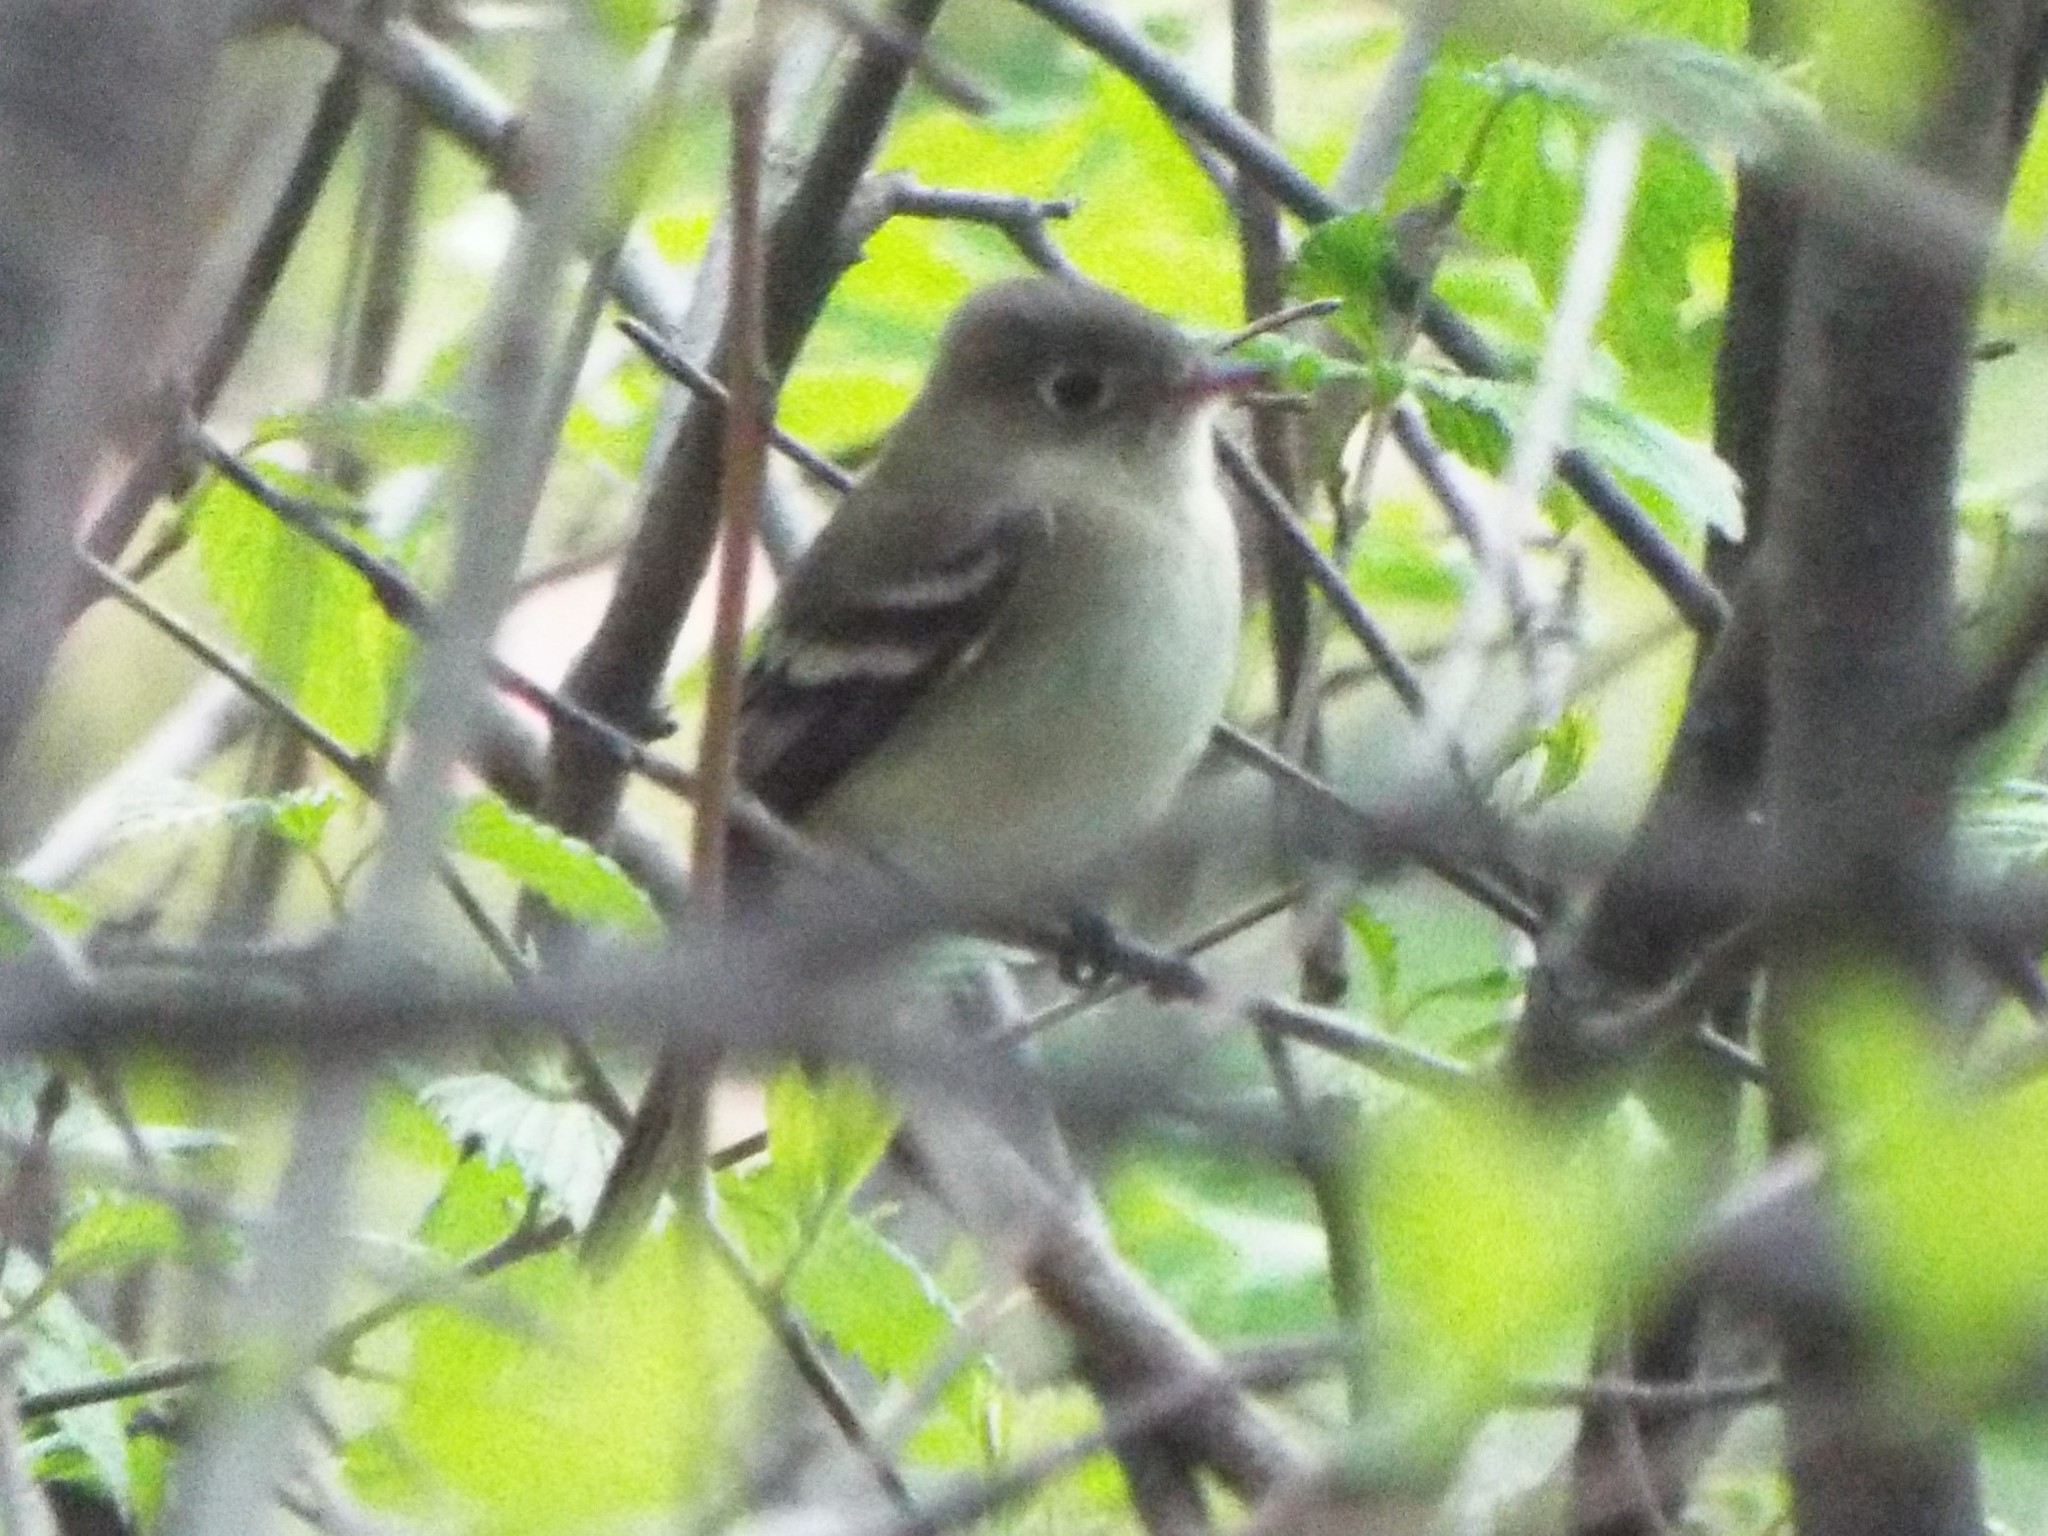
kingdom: Animalia
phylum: Chordata
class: Aves
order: Passeriformes
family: Tyrannidae
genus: Empidonax
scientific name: Empidonax minimus
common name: Least flycatcher
